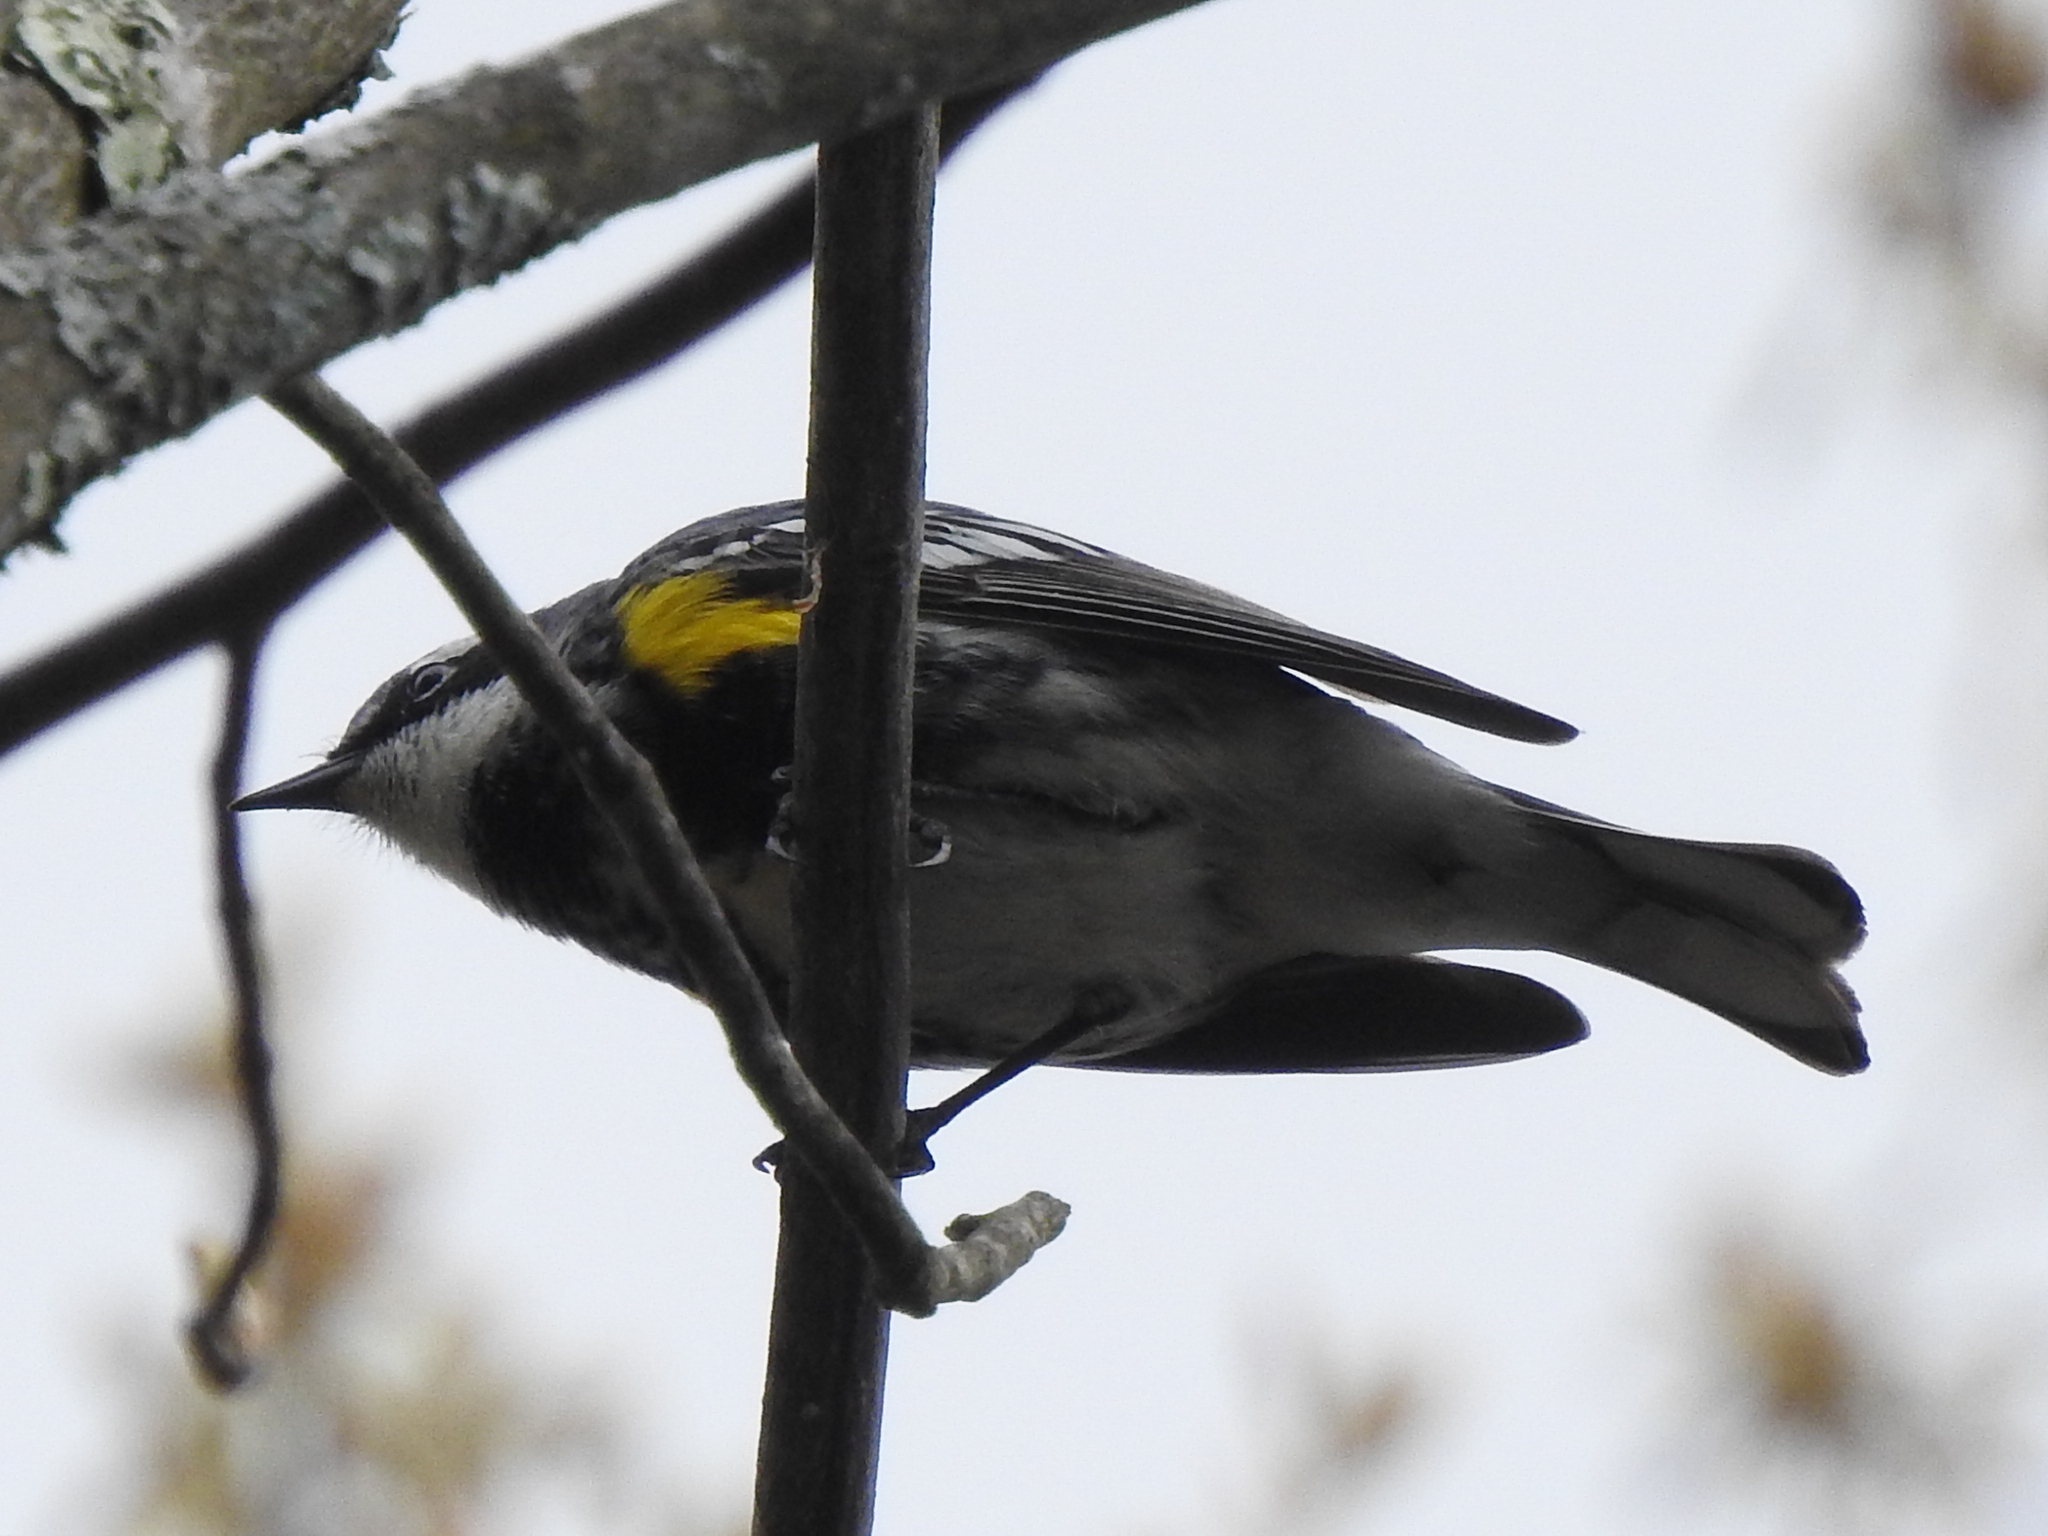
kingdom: Animalia
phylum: Chordata
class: Aves
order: Passeriformes
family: Parulidae
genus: Setophaga
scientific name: Setophaga coronata
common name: Myrtle warbler
